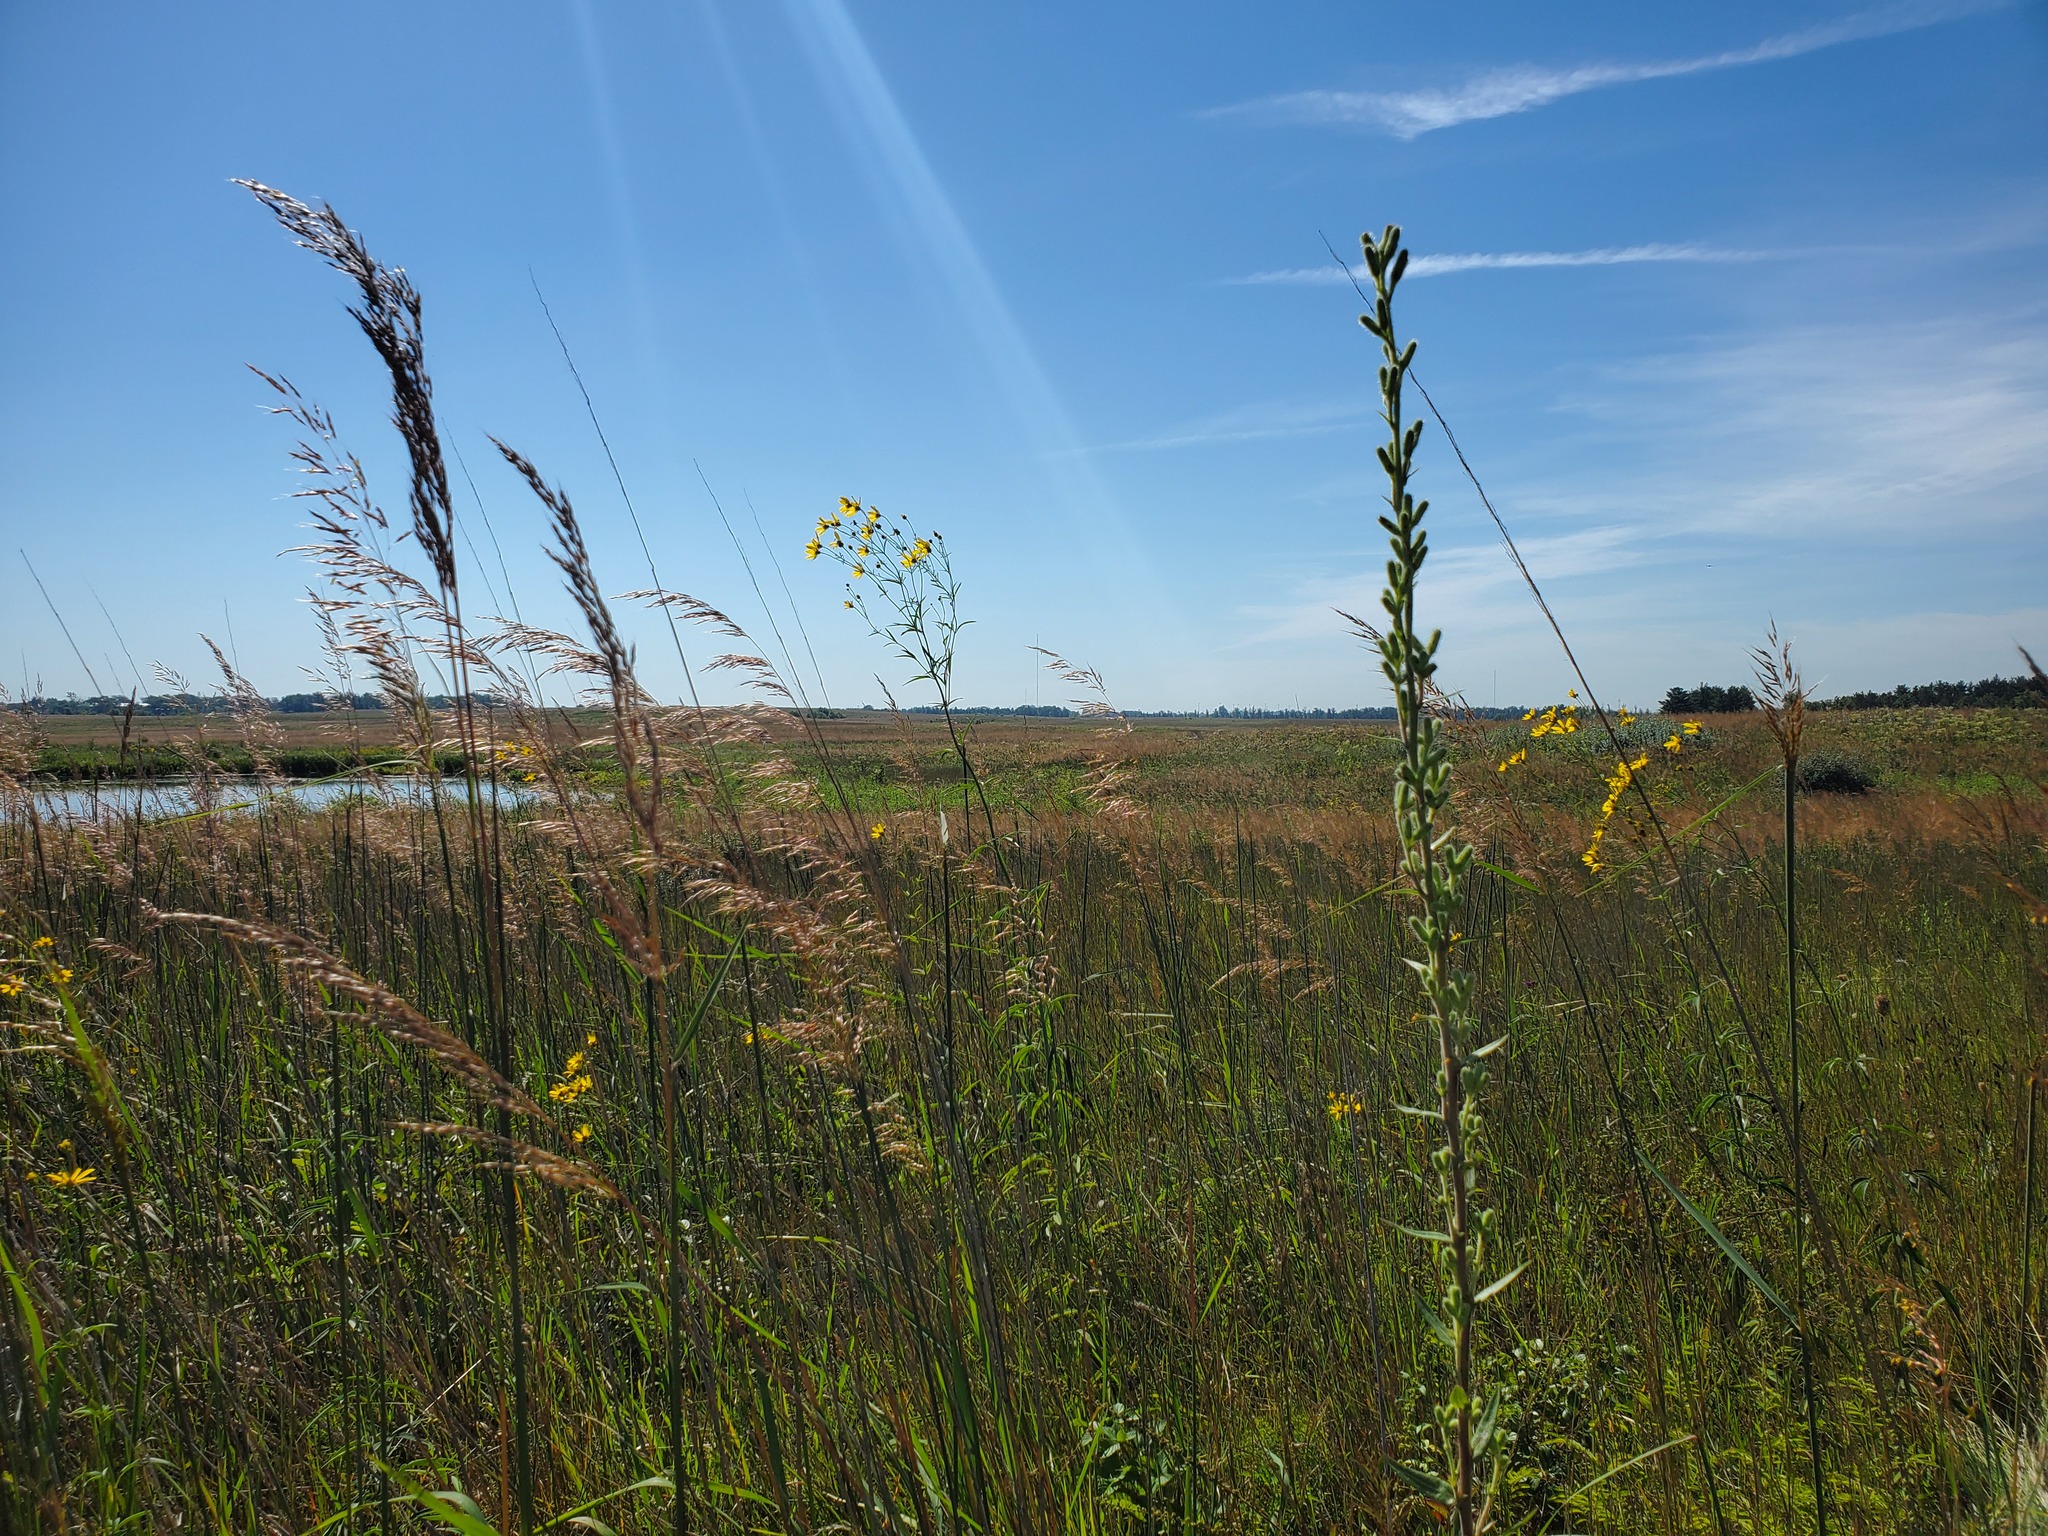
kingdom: Plantae
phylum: Tracheophyta
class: Magnoliopsida
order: Asterales
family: Asteraceae
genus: Coreopsis
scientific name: Coreopsis tripteris
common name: Tall coreopsis
